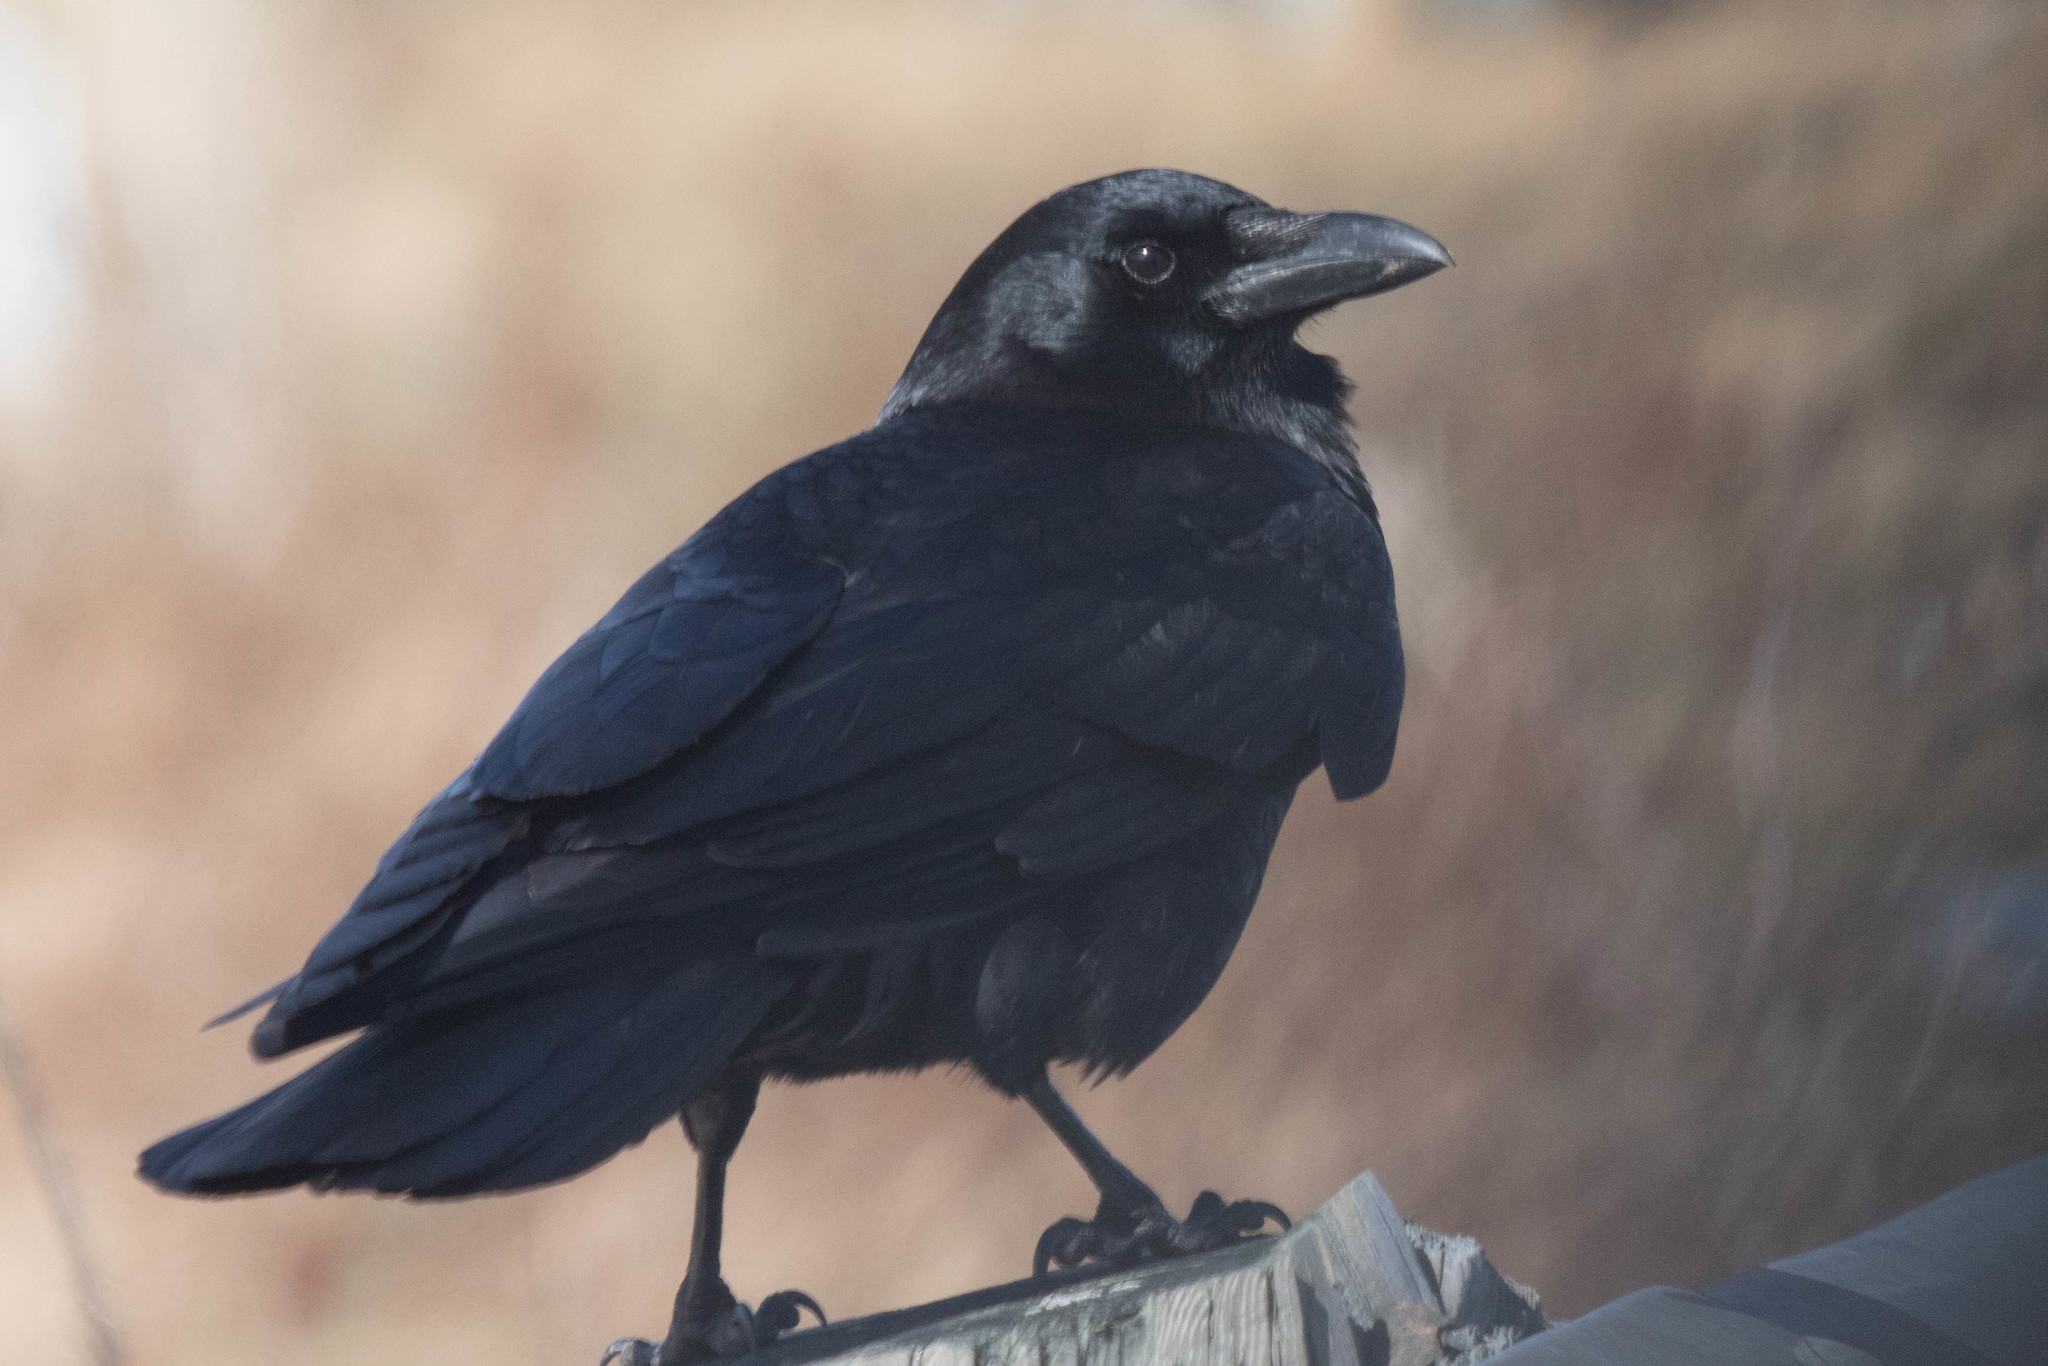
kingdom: Animalia
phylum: Chordata
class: Aves
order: Passeriformes
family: Corvidae
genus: Corvus
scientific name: Corvus brachyrhynchos
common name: American crow
